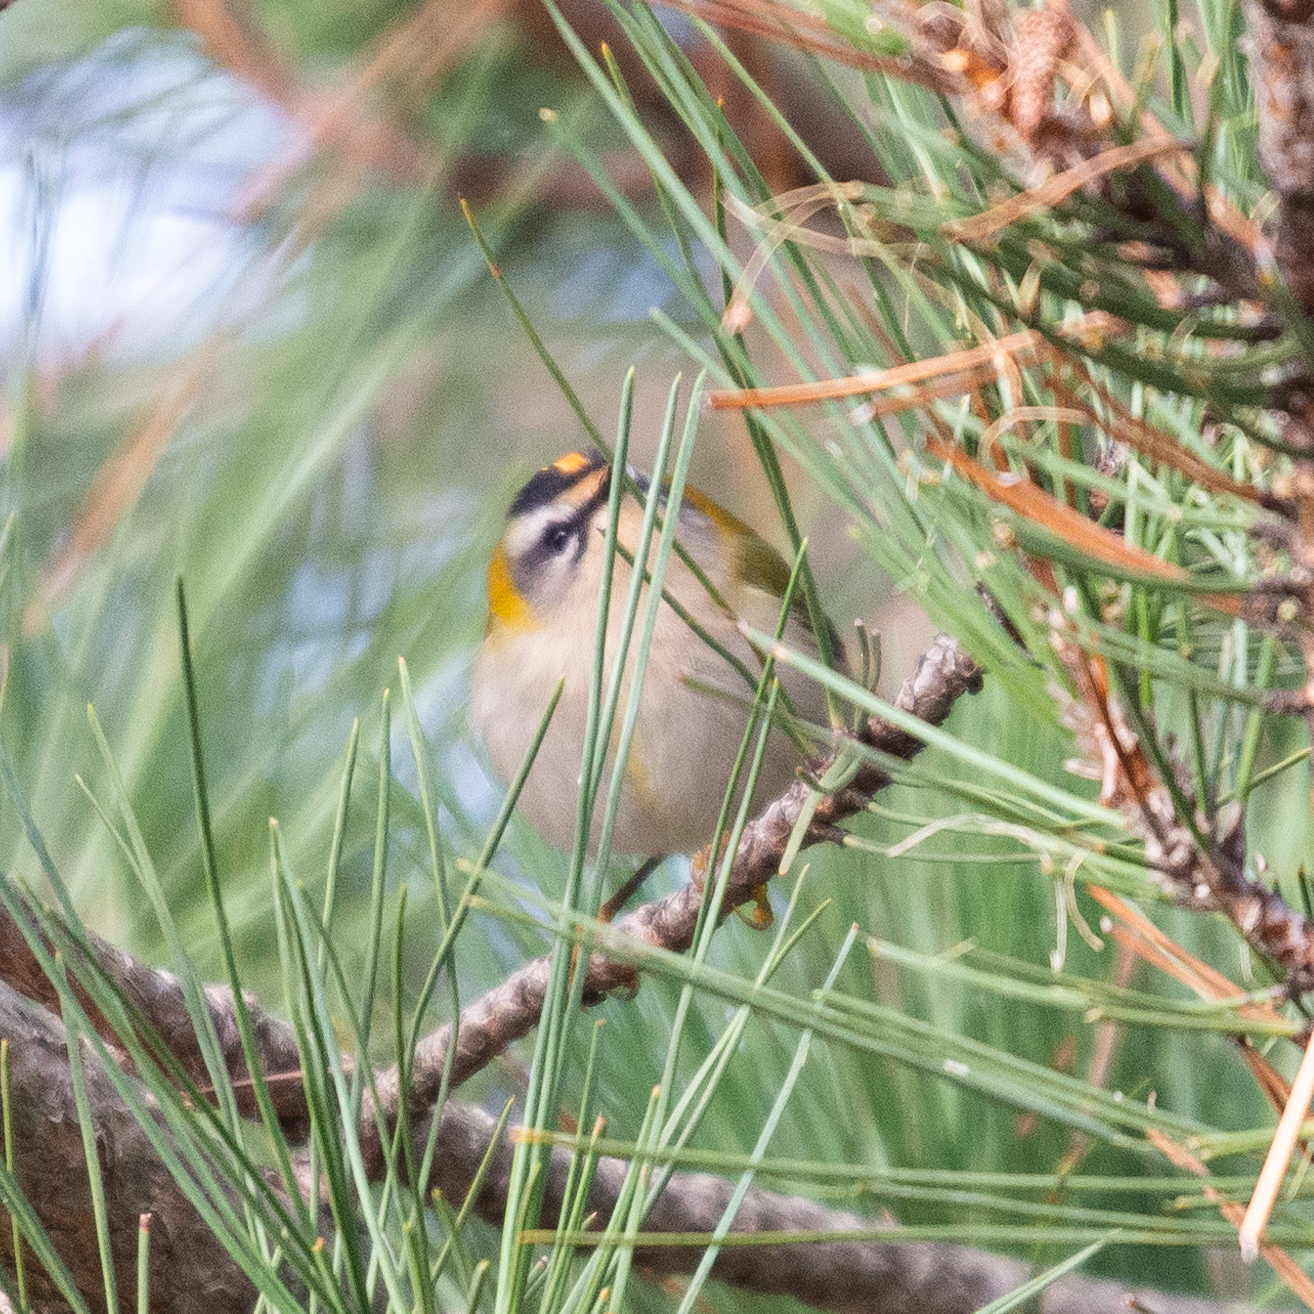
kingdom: Animalia
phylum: Chordata
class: Aves
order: Passeriformes
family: Regulidae
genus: Regulus
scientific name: Regulus ignicapilla
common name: Firecrest
